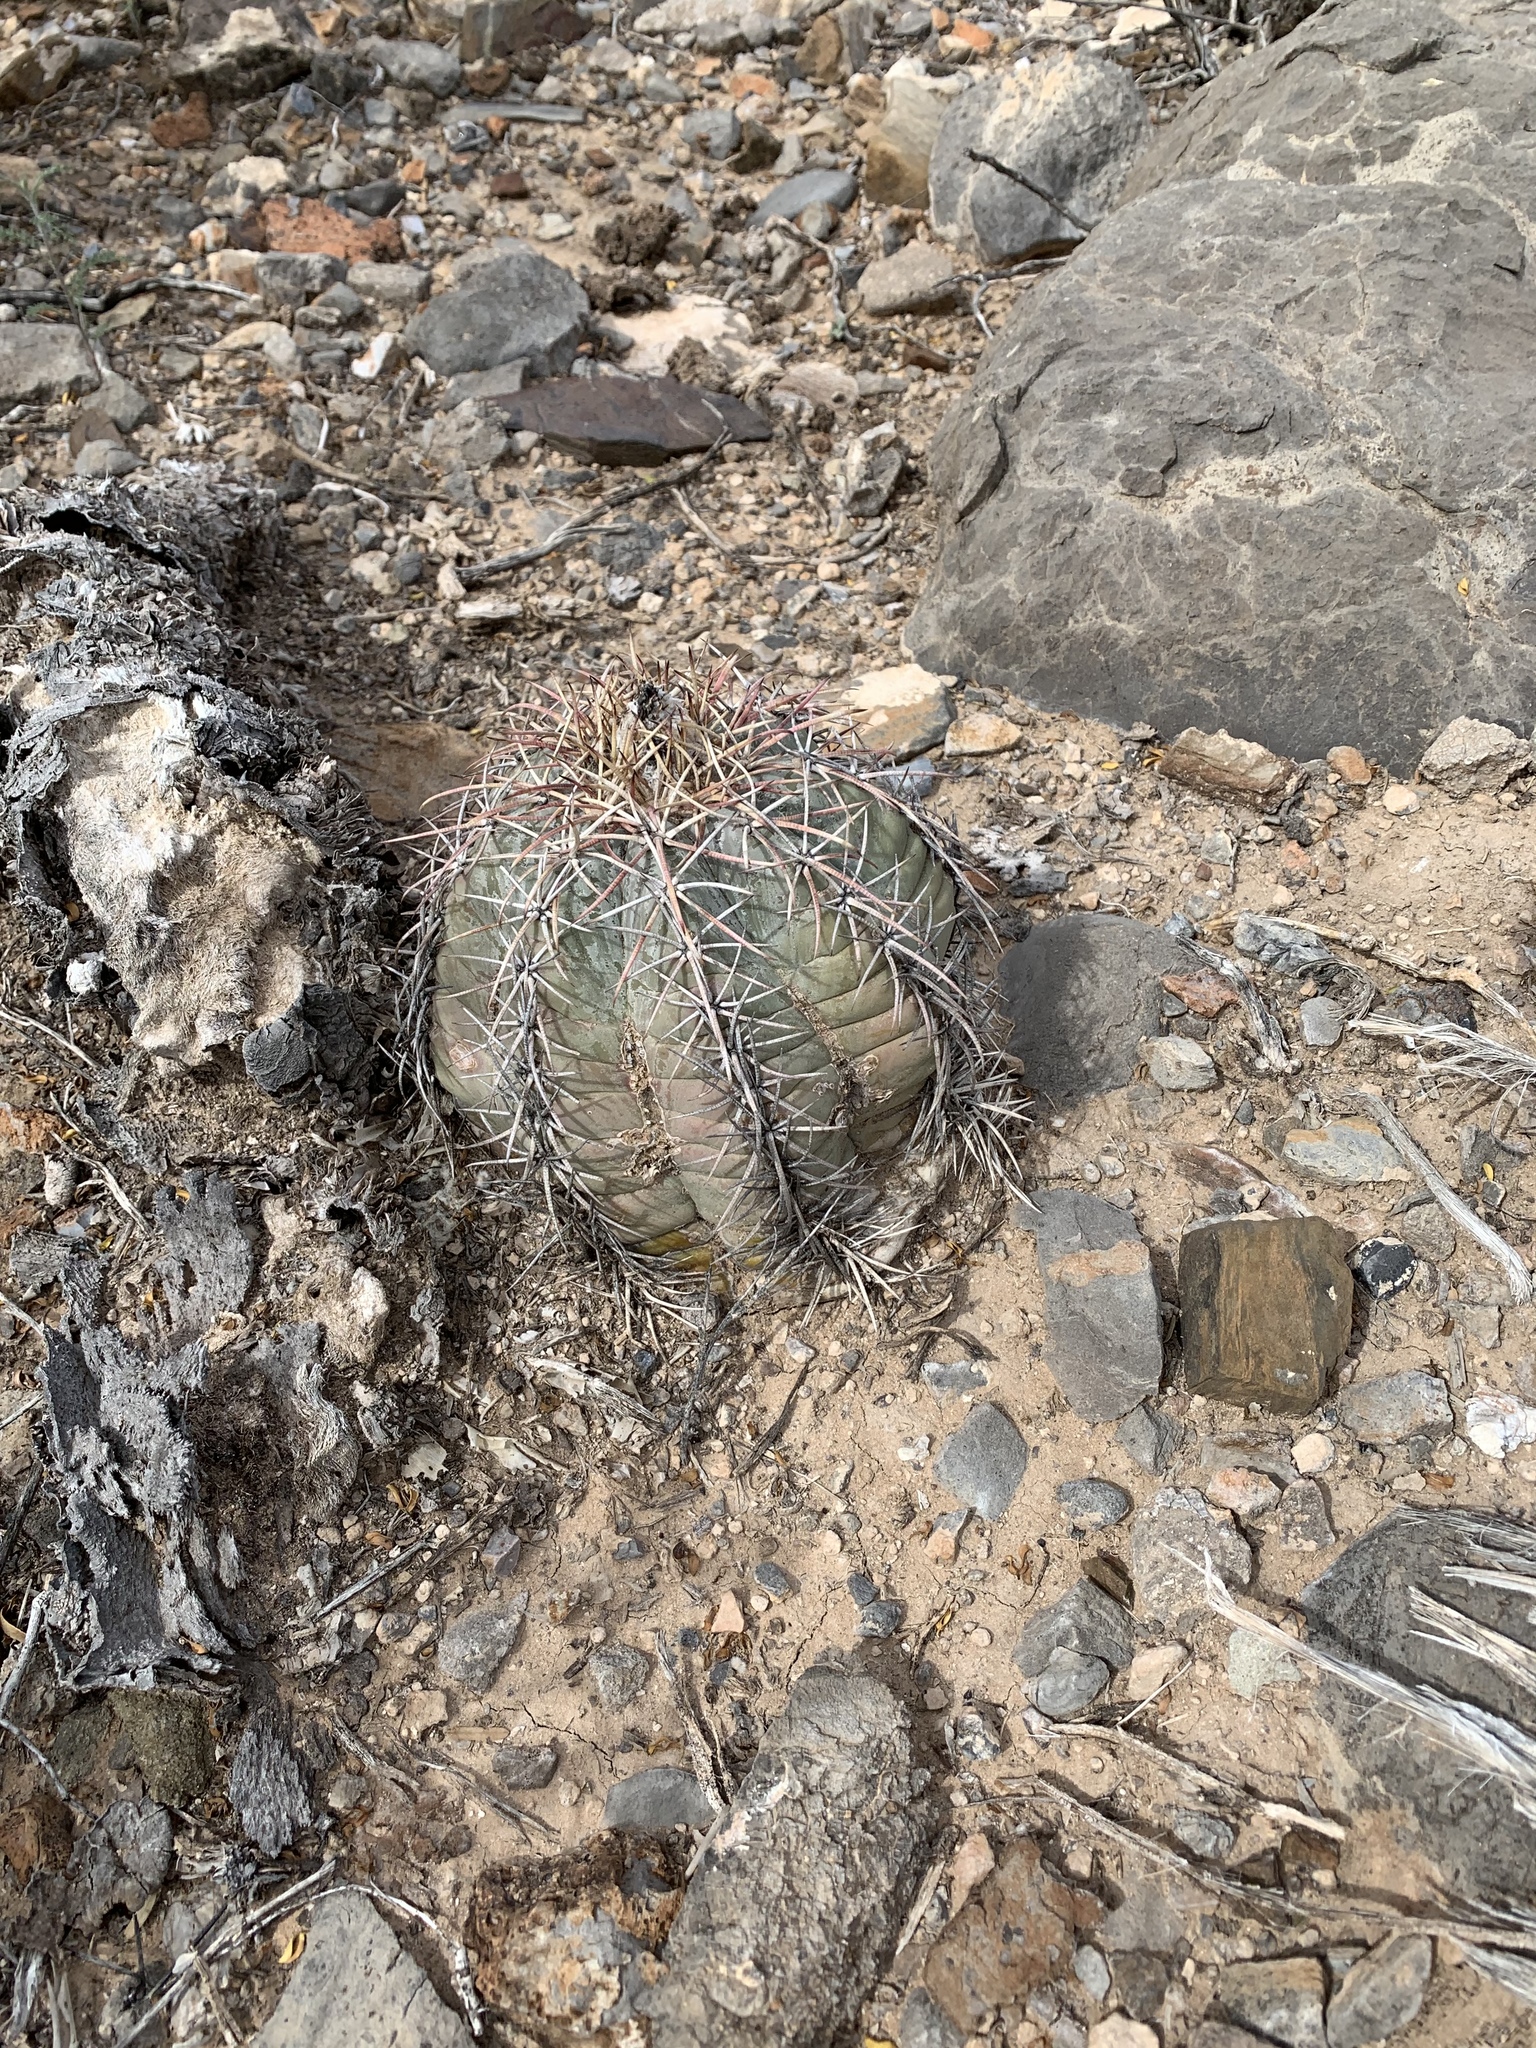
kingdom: Plantae
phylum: Tracheophyta
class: Magnoliopsida
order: Caryophyllales
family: Cactaceae
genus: Echinocactus
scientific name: Echinocactus horizonthalonius
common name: Devilshead
